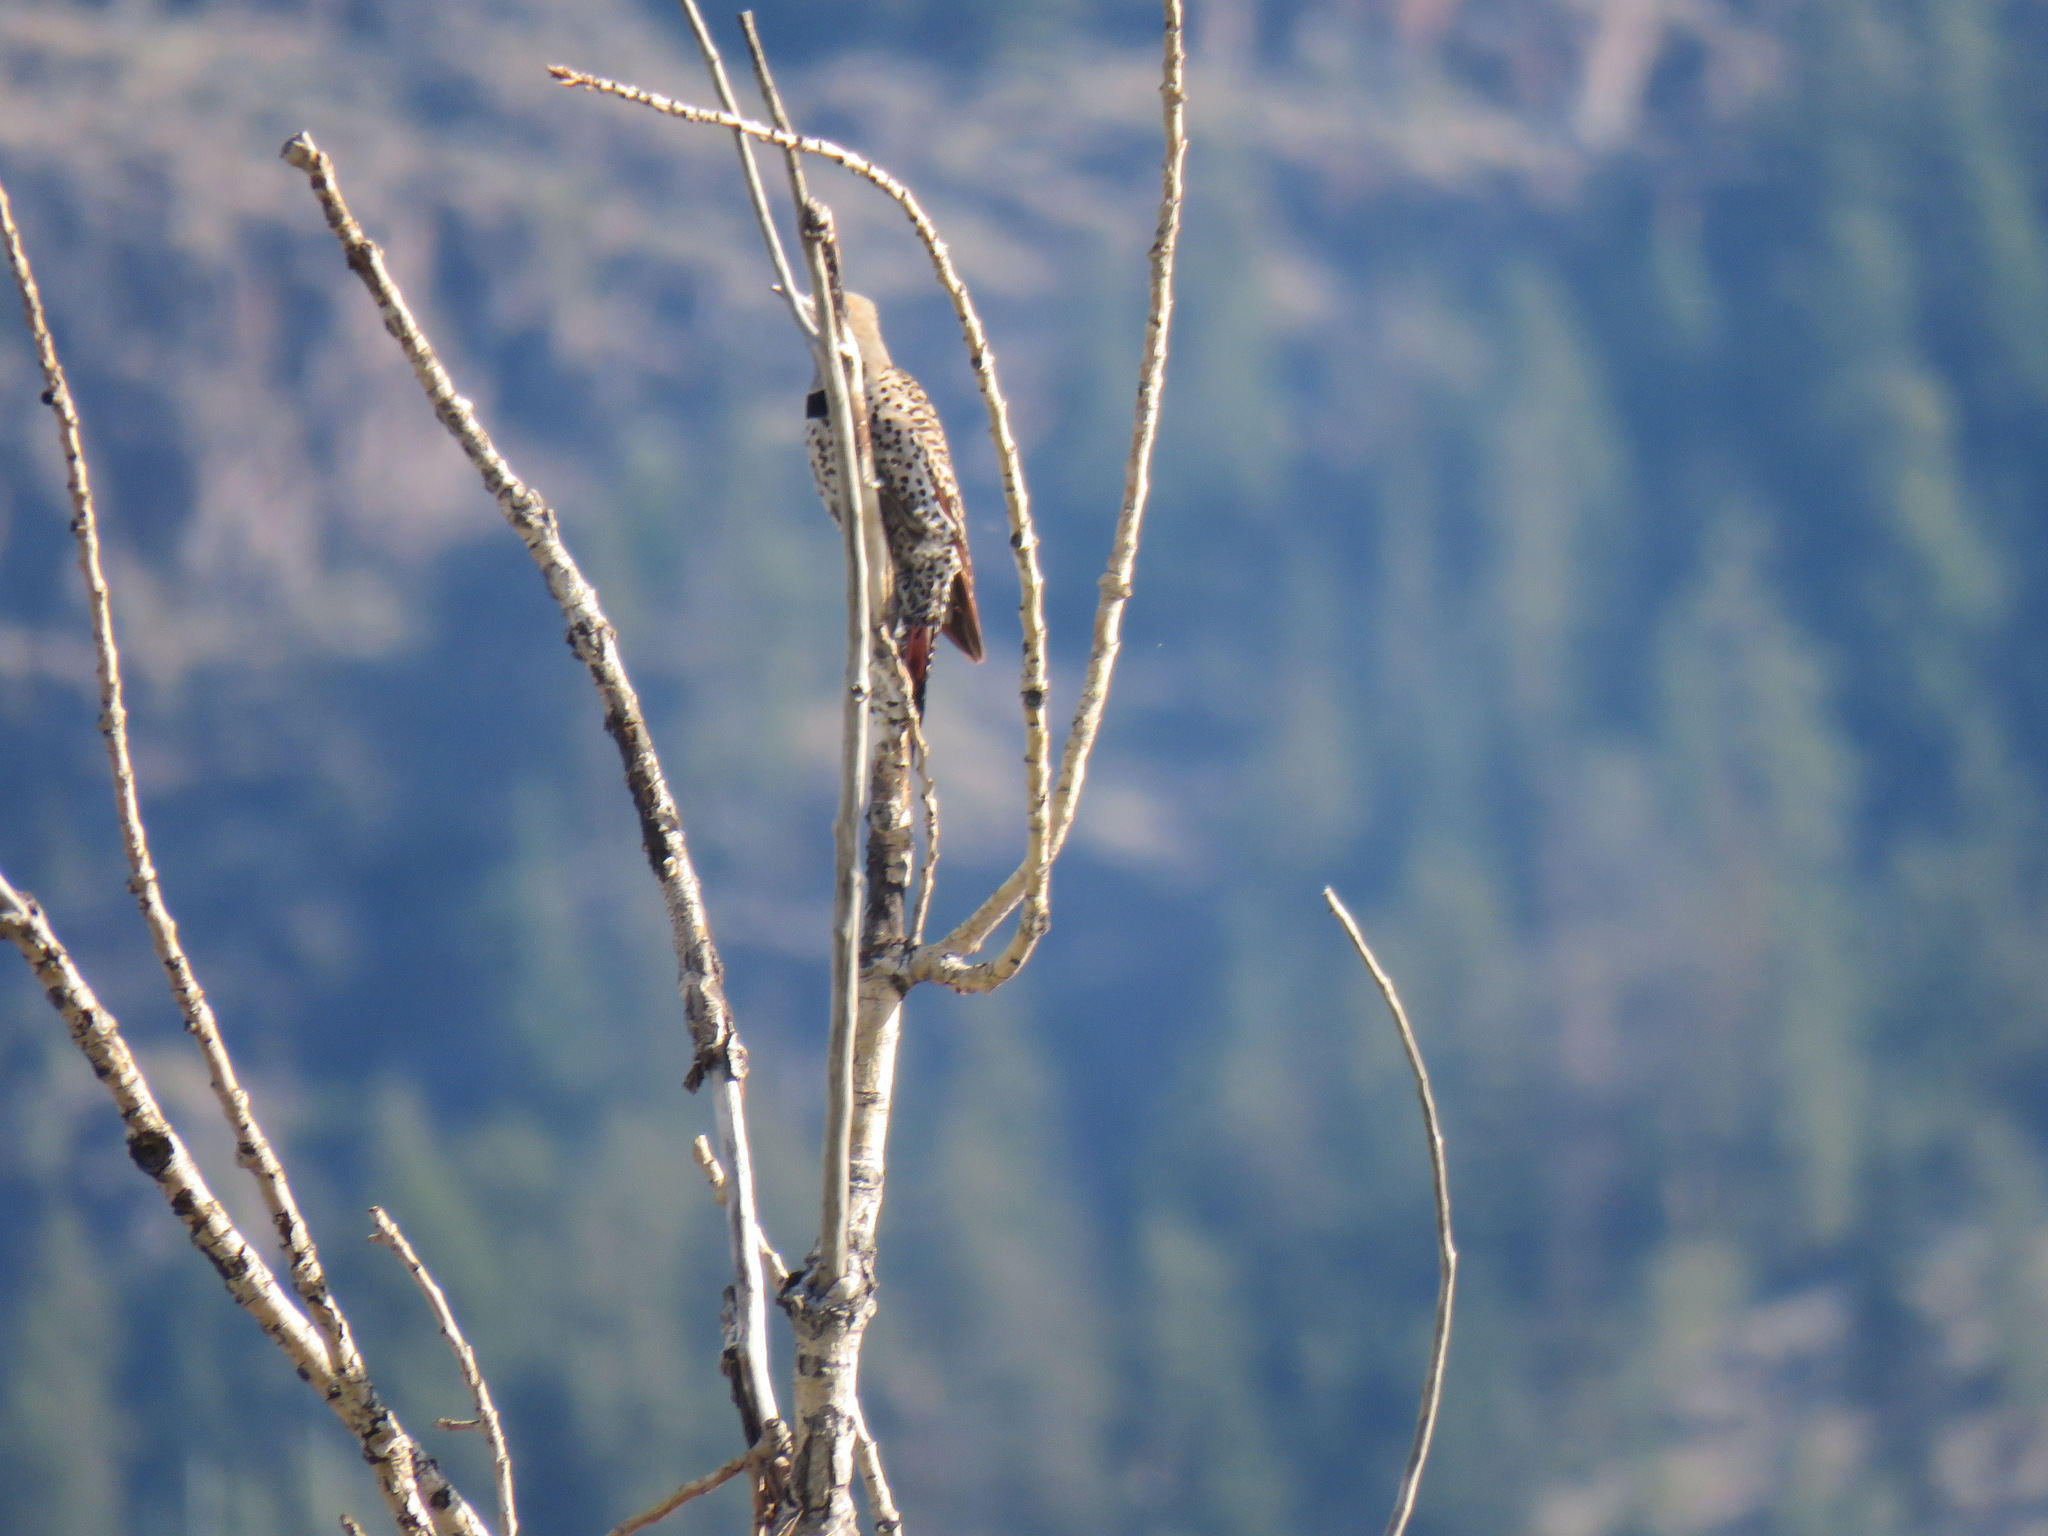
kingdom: Animalia
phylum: Chordata
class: Aves
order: Piciformes
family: Picidae
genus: Colaptes
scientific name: Colaptes auratus
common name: Northern flicker
